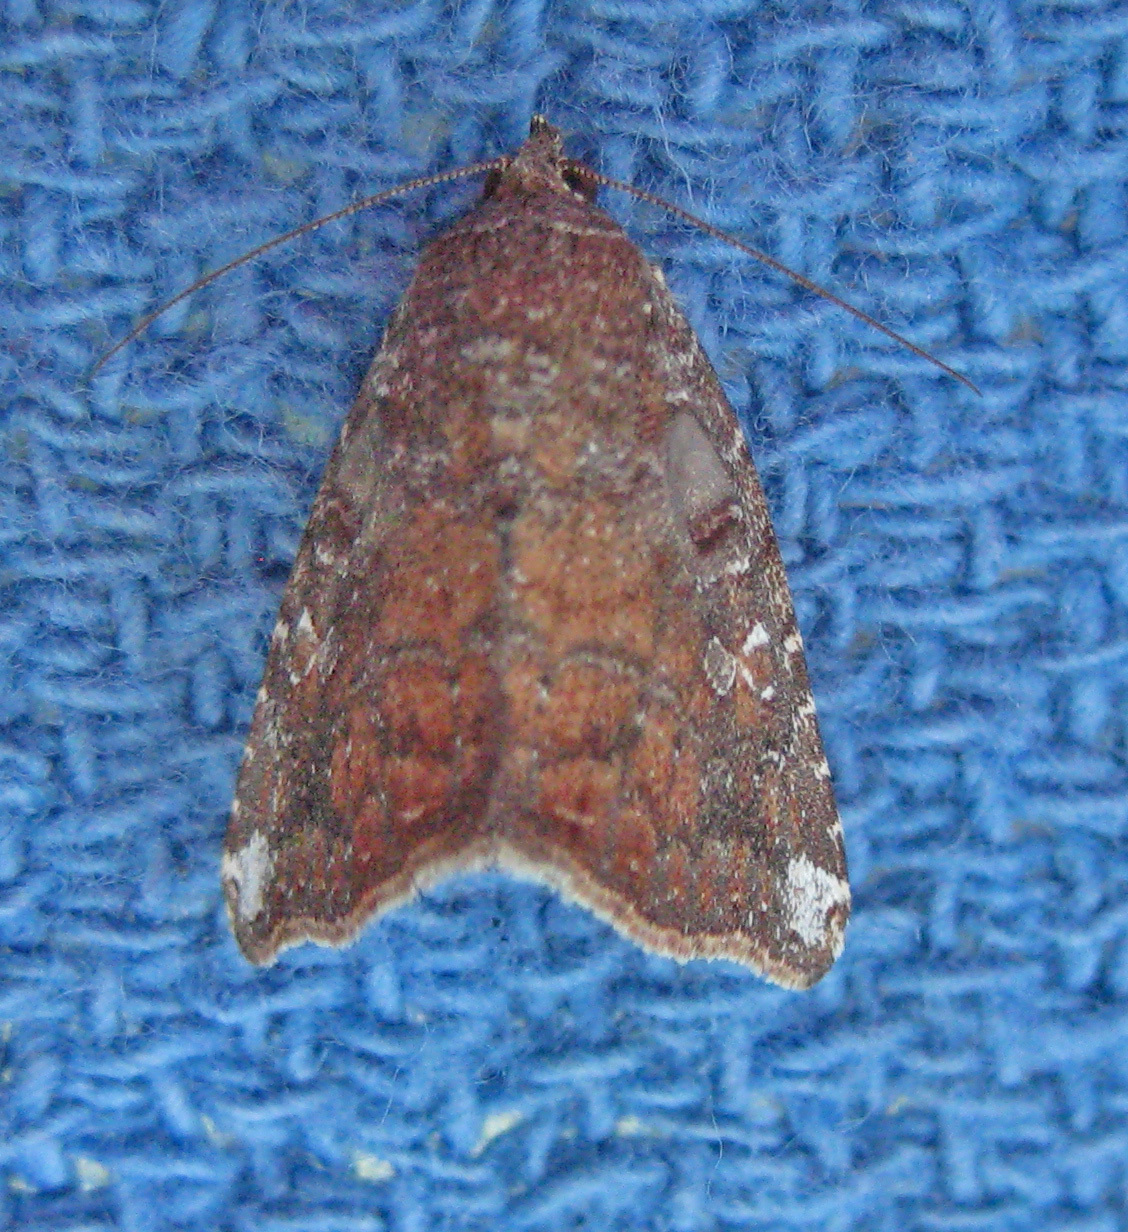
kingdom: Animalia
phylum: Arthropoda
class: Insecta
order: Lepidoptera
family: Noctuidae
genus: Amyna
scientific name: Amyna bullula
